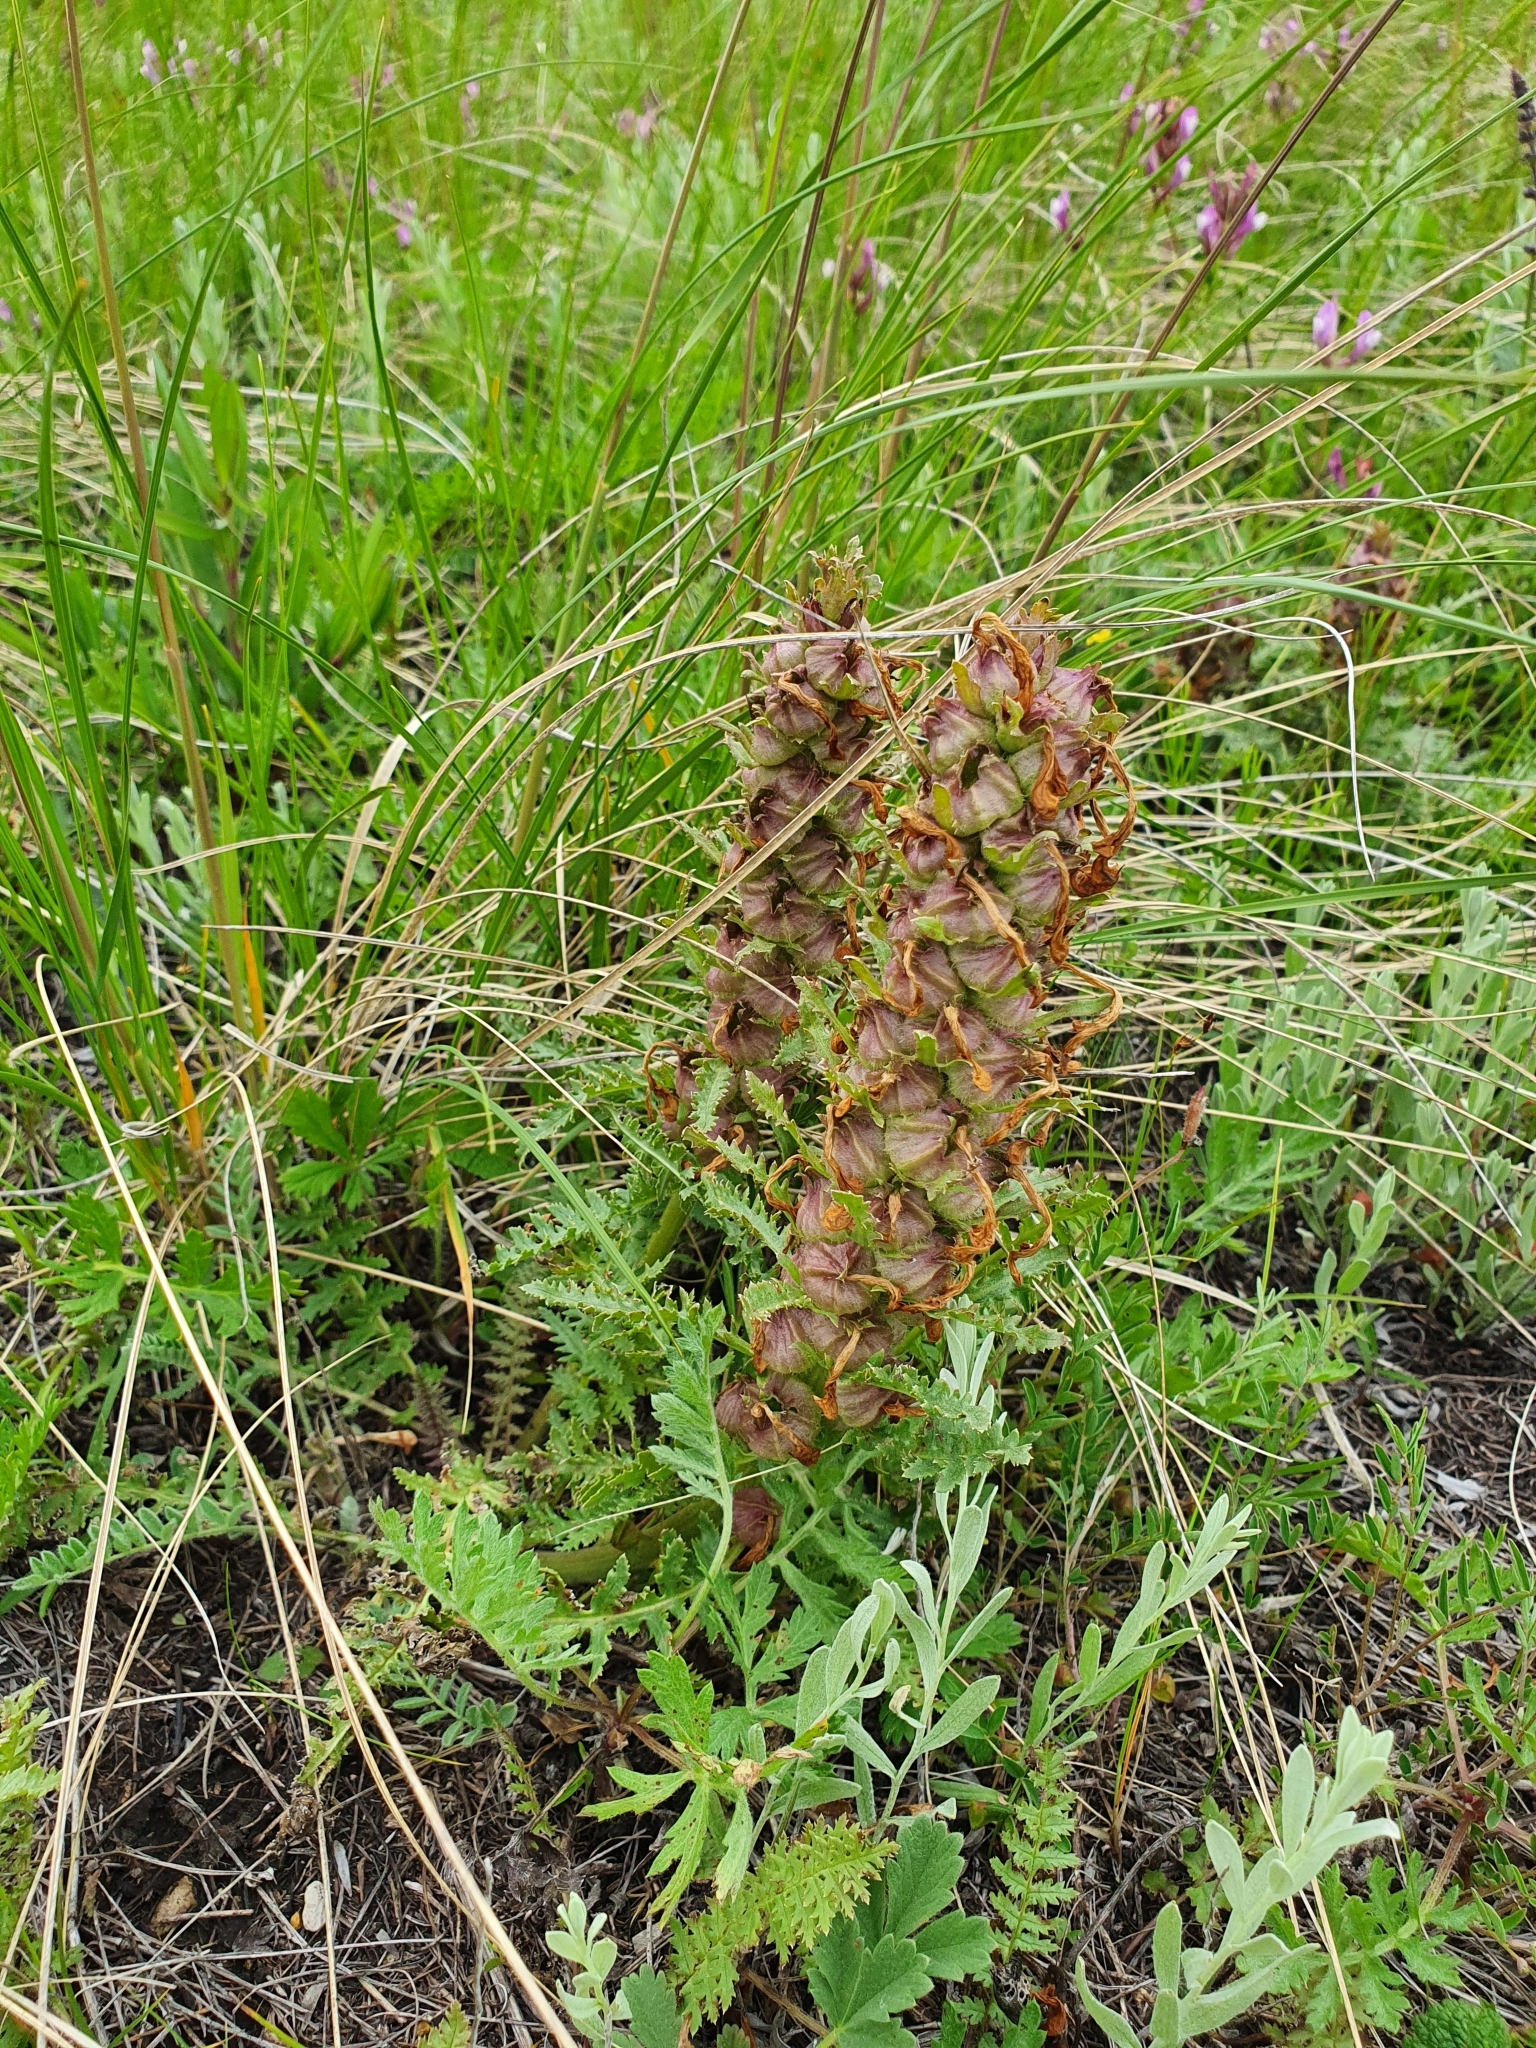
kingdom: Plantae
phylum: Tracheophyta
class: Magnoliopsida
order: Lamiales
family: Orobanchaceae
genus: Pedicularis
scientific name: Pedicularis physocalyx
